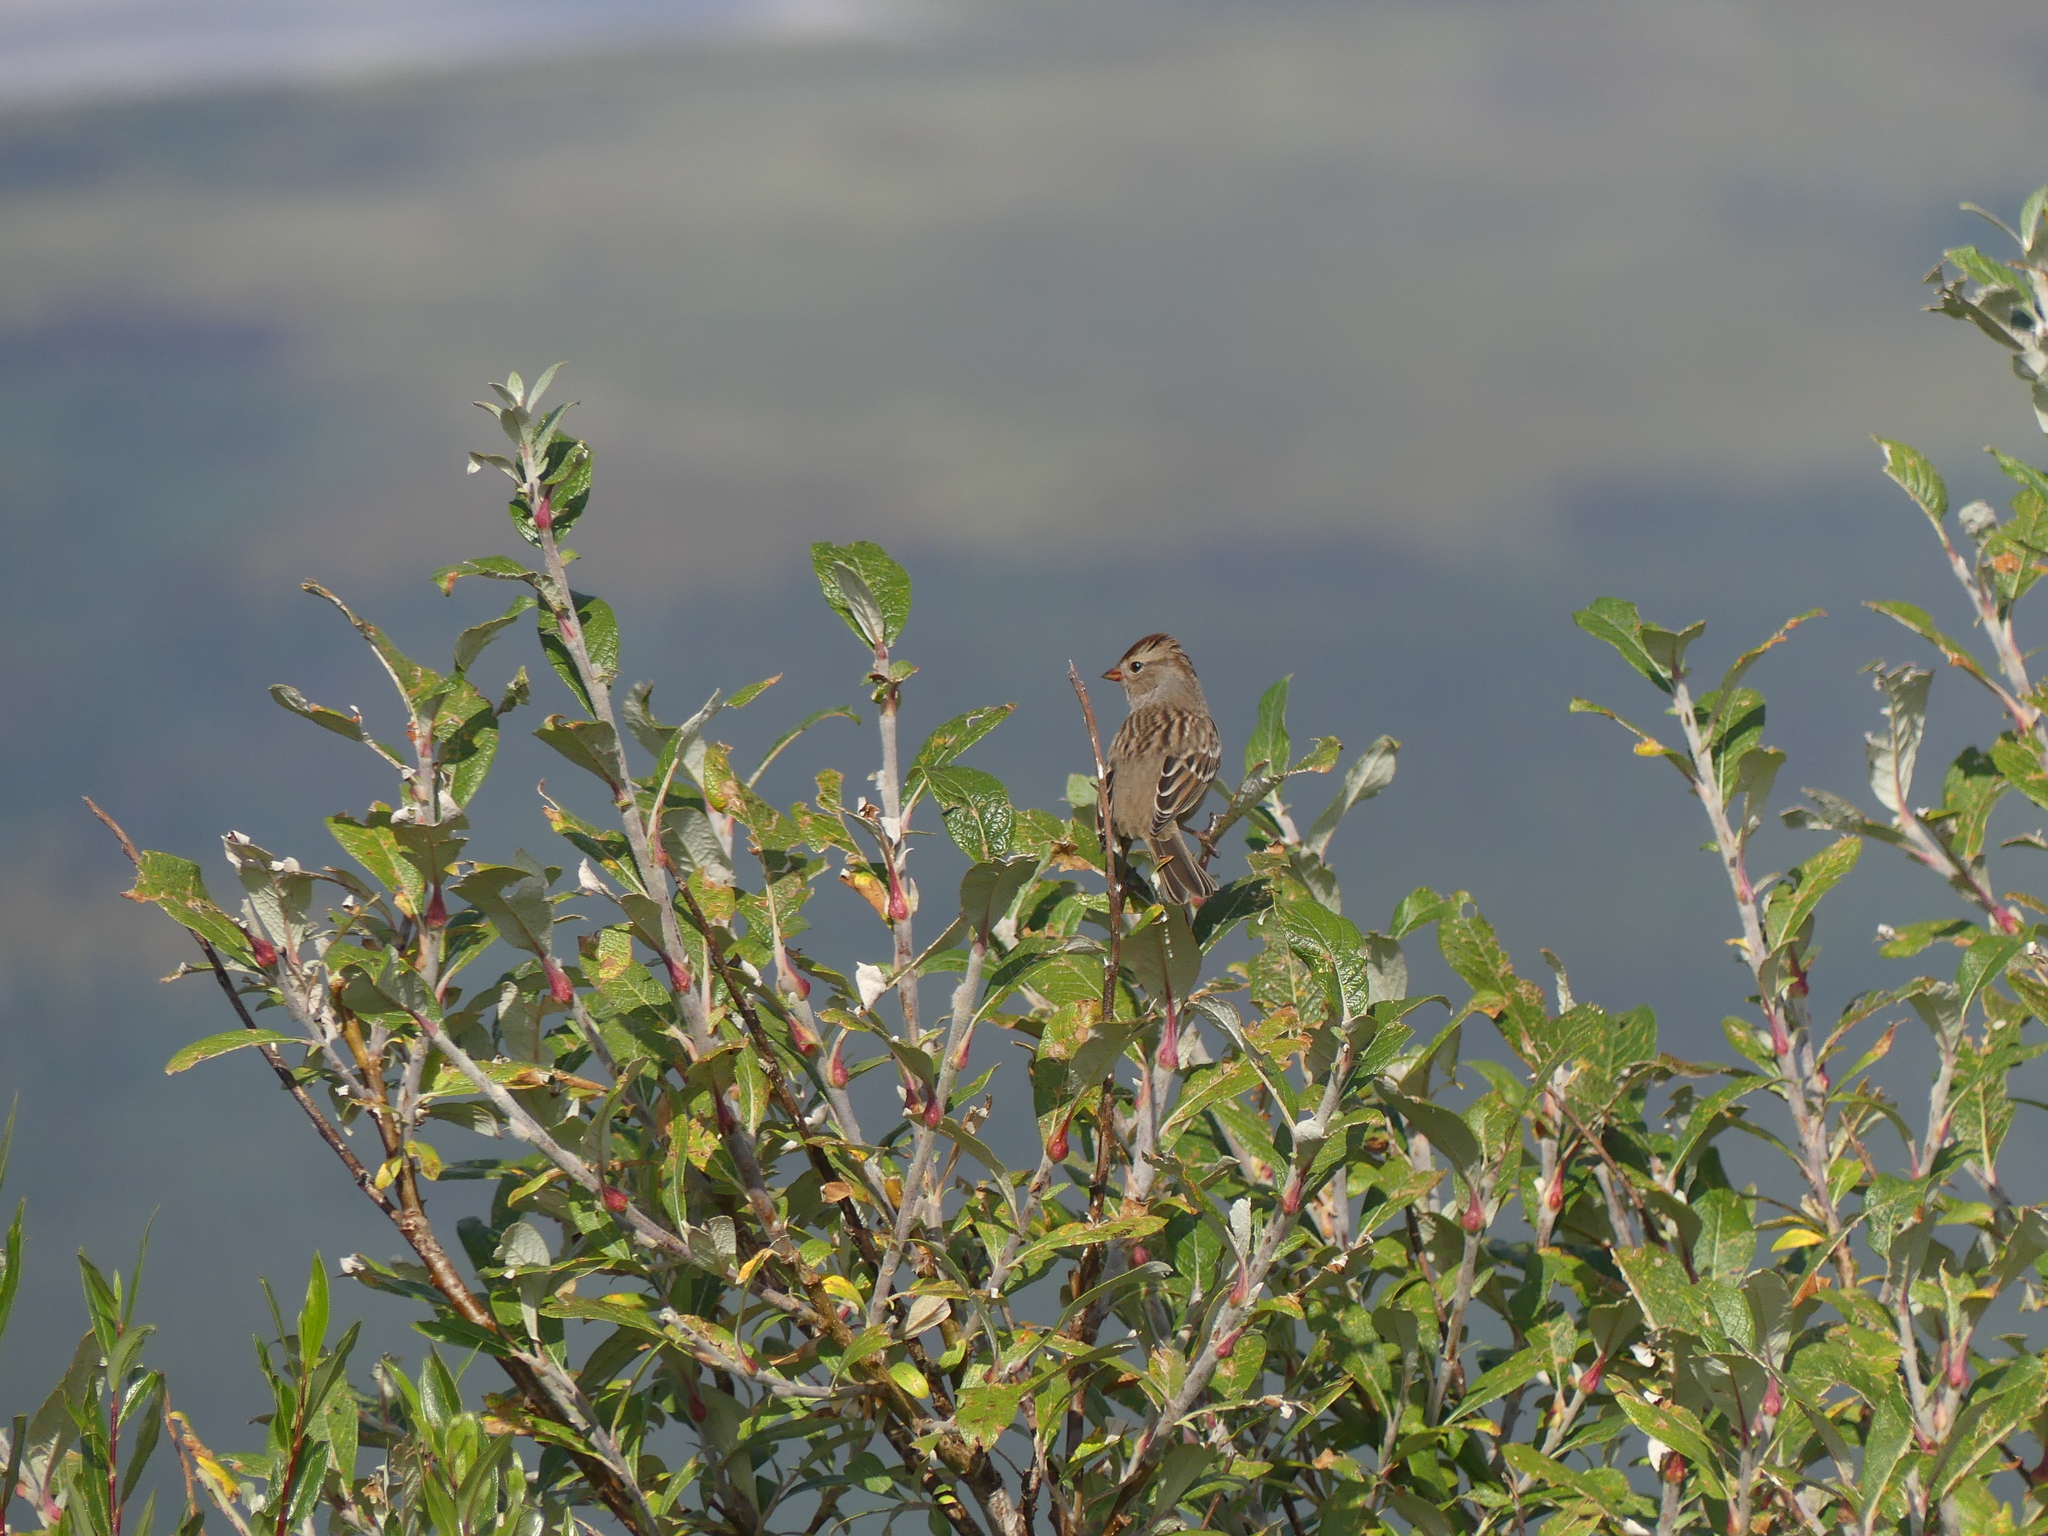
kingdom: Animalia
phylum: Chordata
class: Aves
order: Passeriformes
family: Passerellidae
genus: Zonotrichia
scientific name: Zonotrichia leucophrys
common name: White-crowned sparrow
